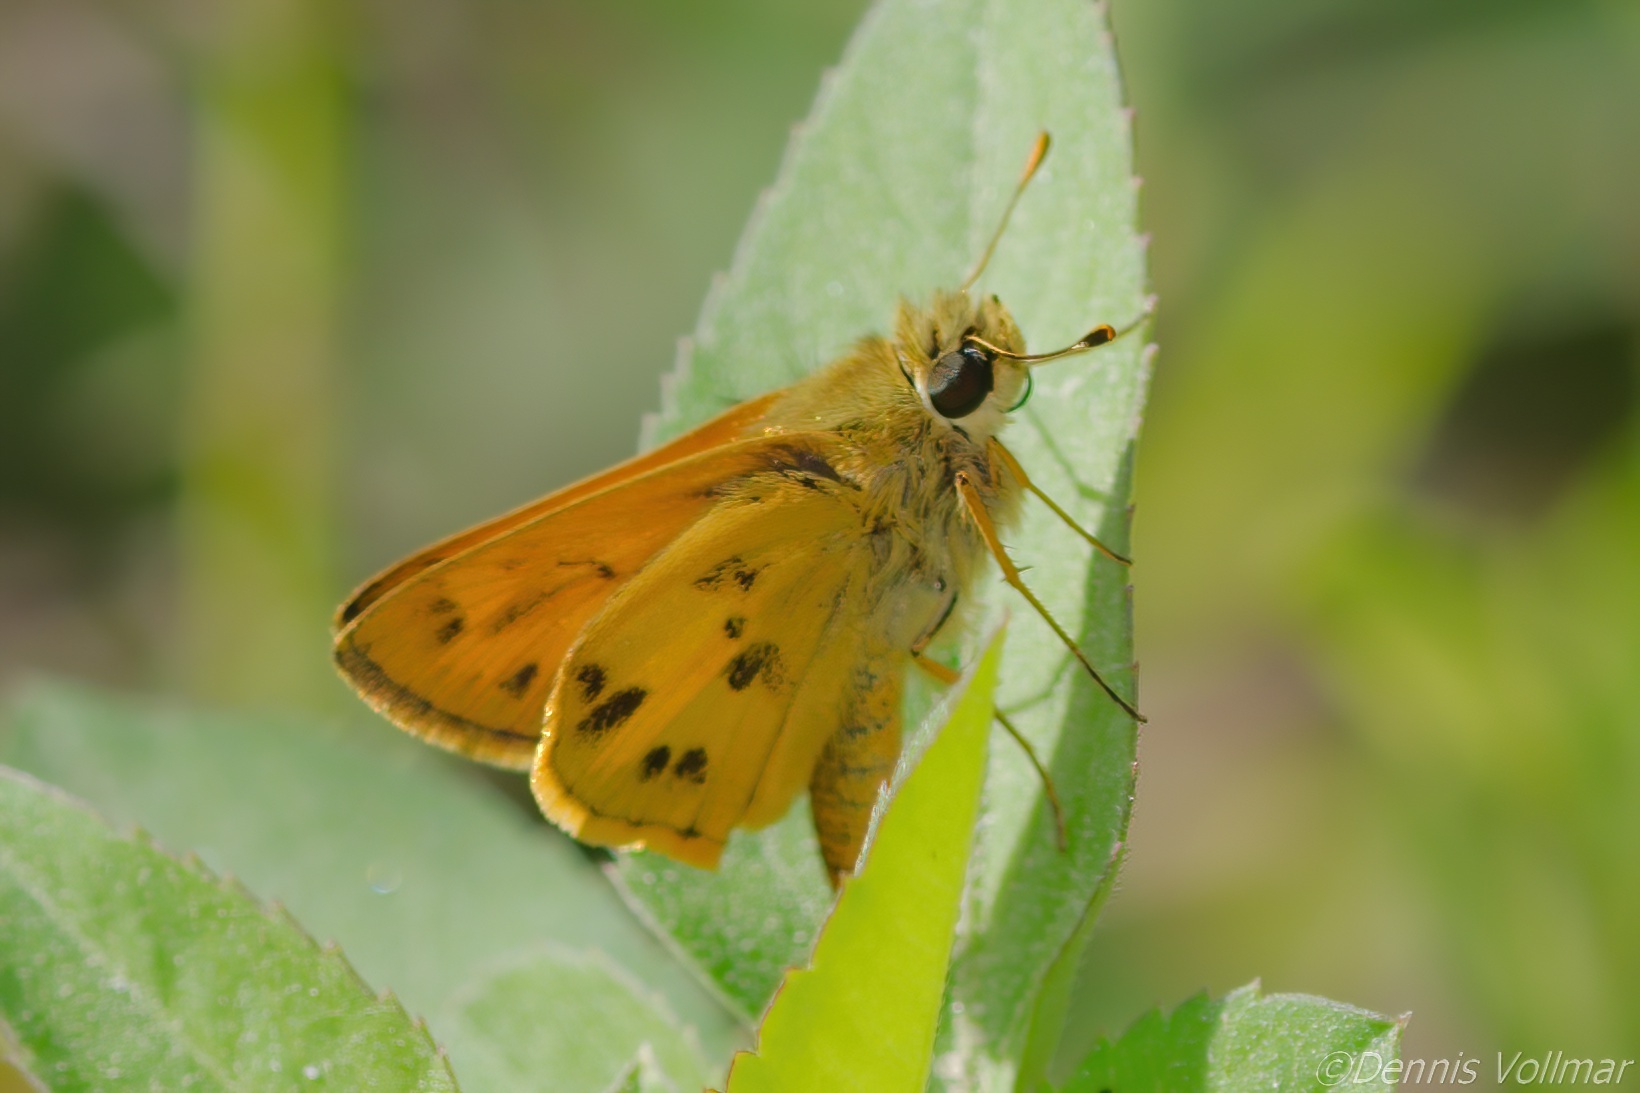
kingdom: Animalia
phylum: Arthropoda
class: Insecta
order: Lepidoptera
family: Hesperiidae
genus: Polites
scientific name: Polites vibex
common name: Whirlabout
